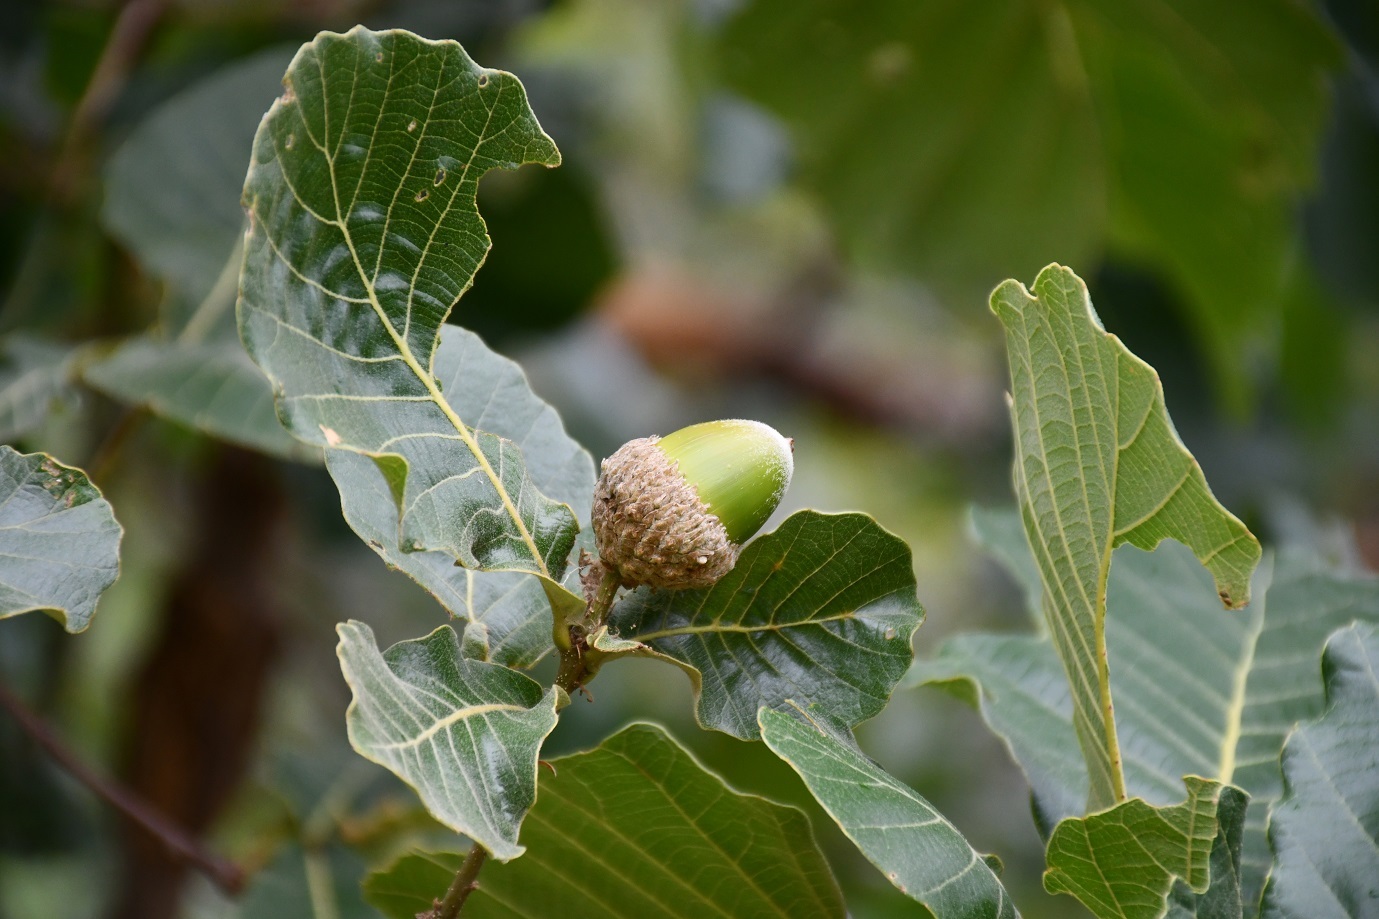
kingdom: Plantae
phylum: Tracheophyta
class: Magnoliopsida
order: Fagales
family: Fagaceae
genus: Quercus
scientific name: Quercus magnoliifolia
